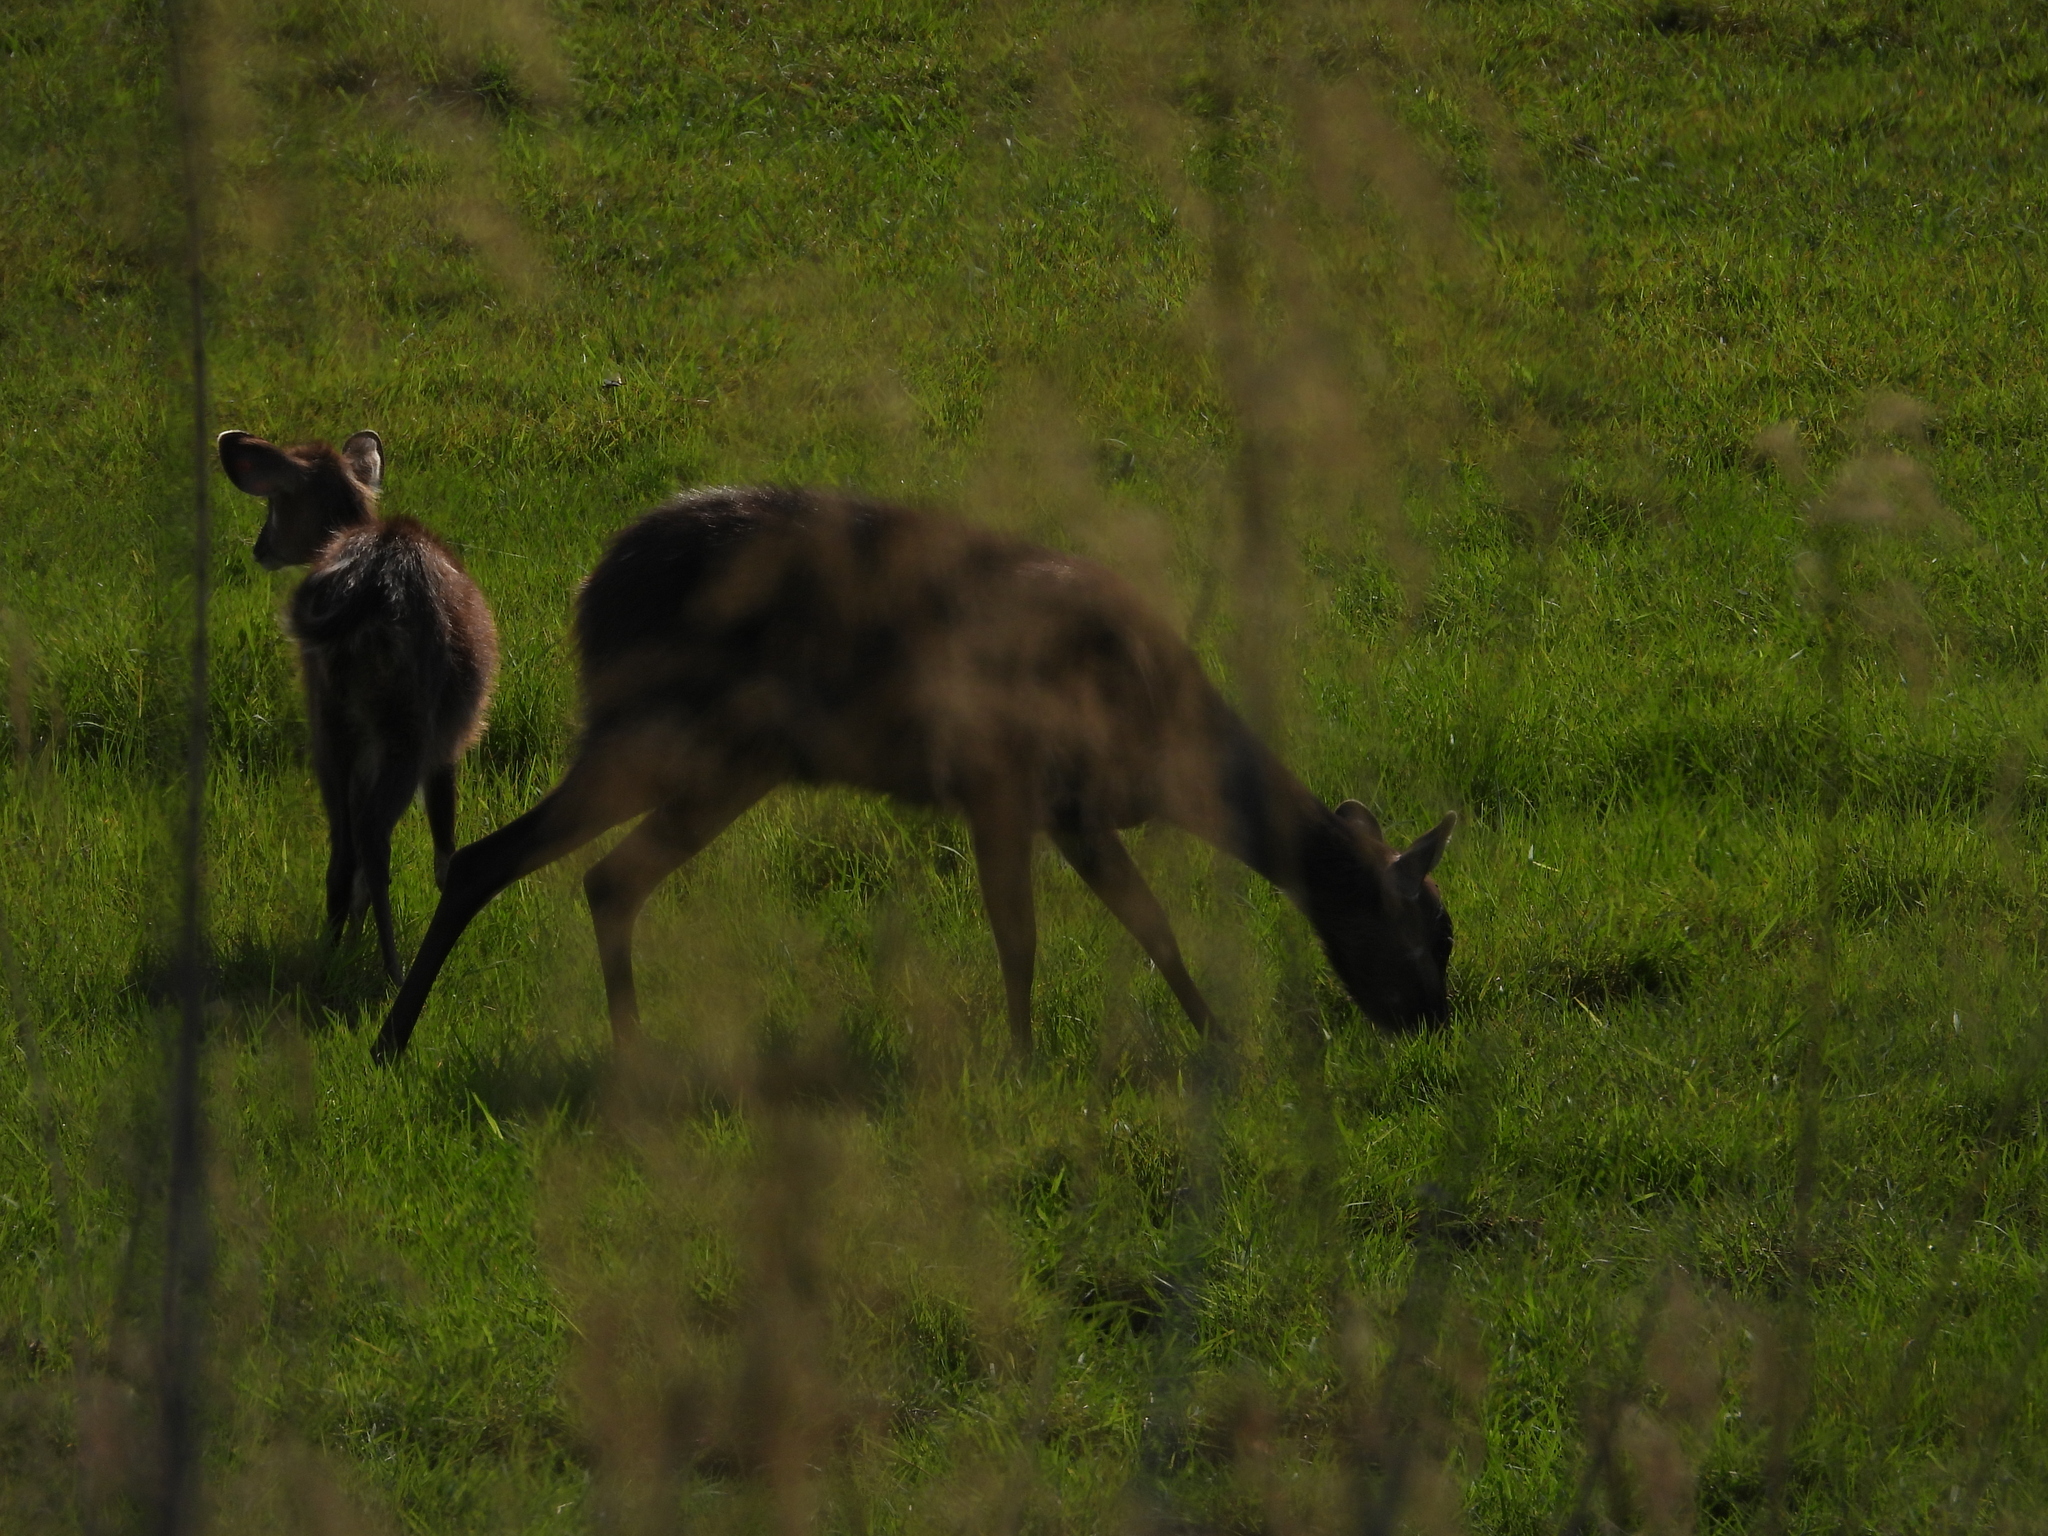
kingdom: Animalia
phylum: Chordata
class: Mammalia
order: Artiodactyla
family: Bovidae
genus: Tragelaphus
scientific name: Tragelaphus spekii
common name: Sitatunga
